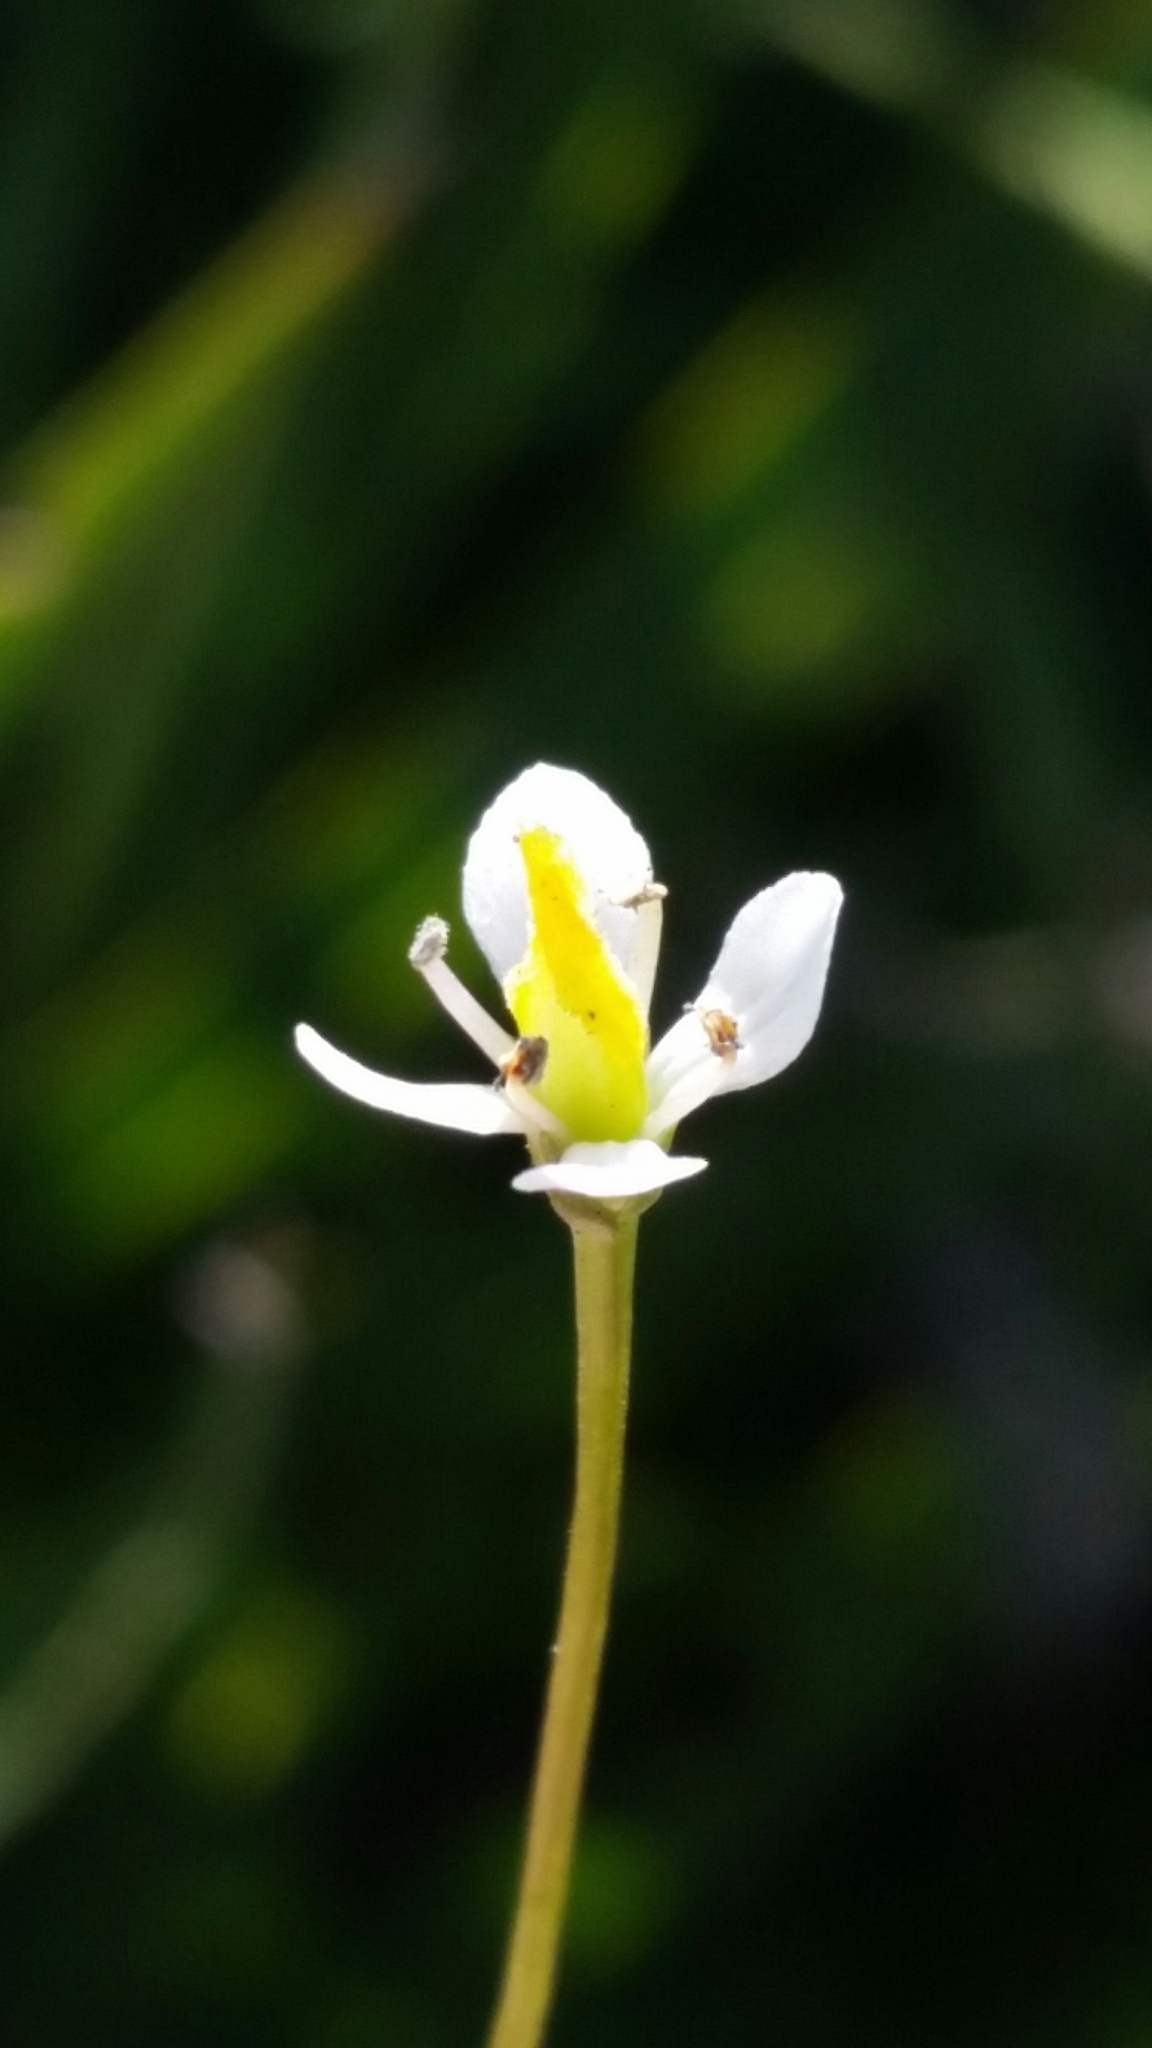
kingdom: Plantae
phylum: Tracheophyta
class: Magnoliopsida
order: Gentianales
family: Gentianaceae
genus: Bartonia
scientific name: Bartonia verna
